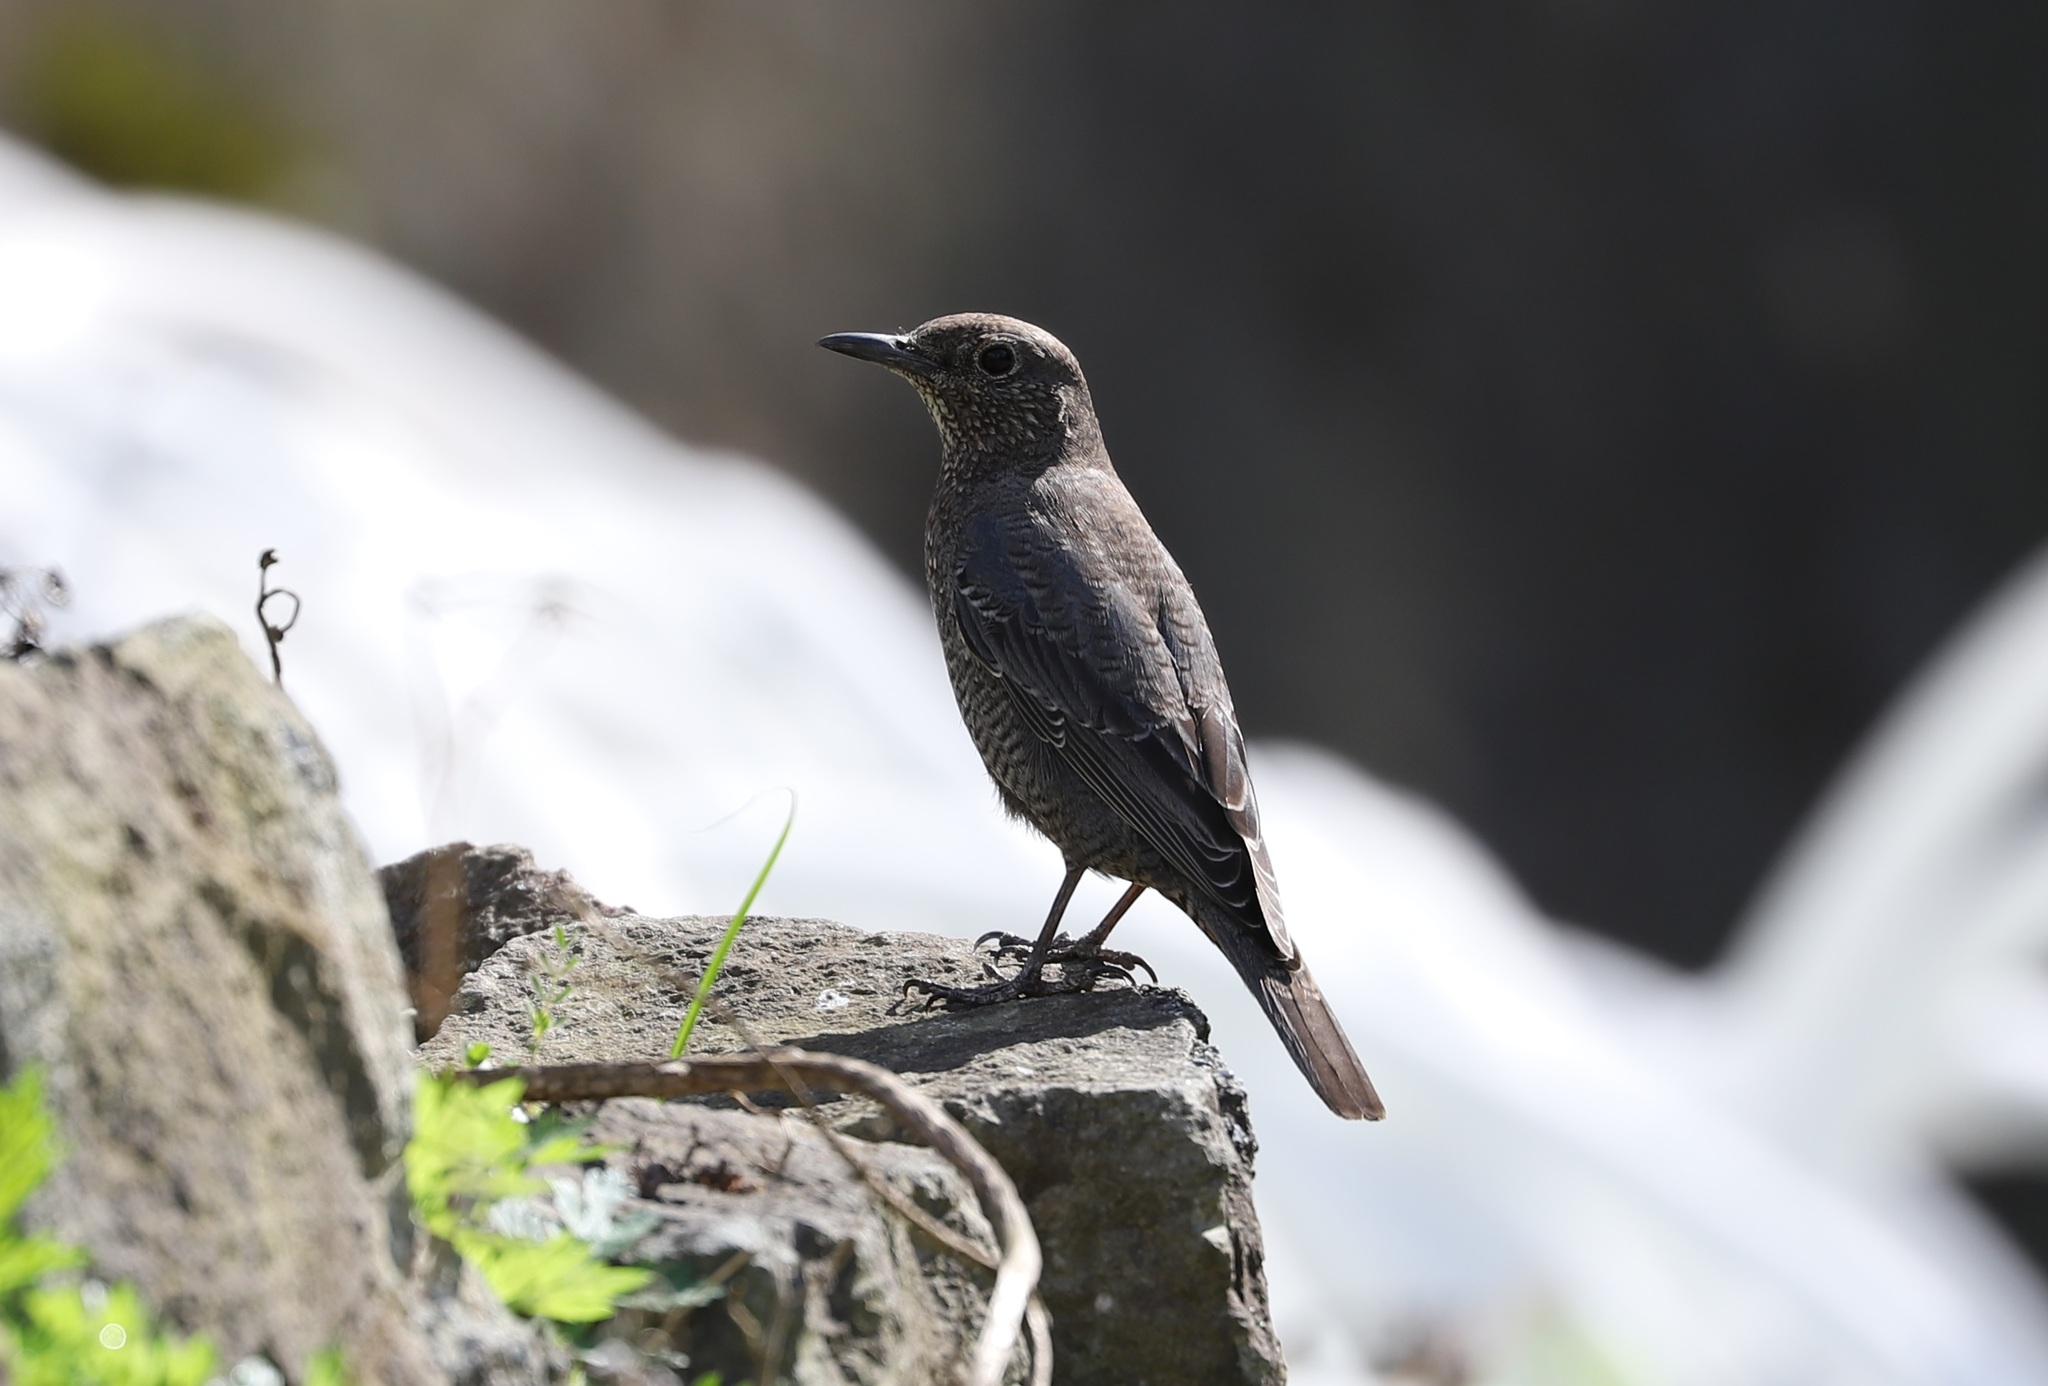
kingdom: Animalia
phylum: Chordata
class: Aves
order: Passeriformes
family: Muscicapidae
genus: Monticola
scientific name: Monticola solitarius
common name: Blue rock thrush
